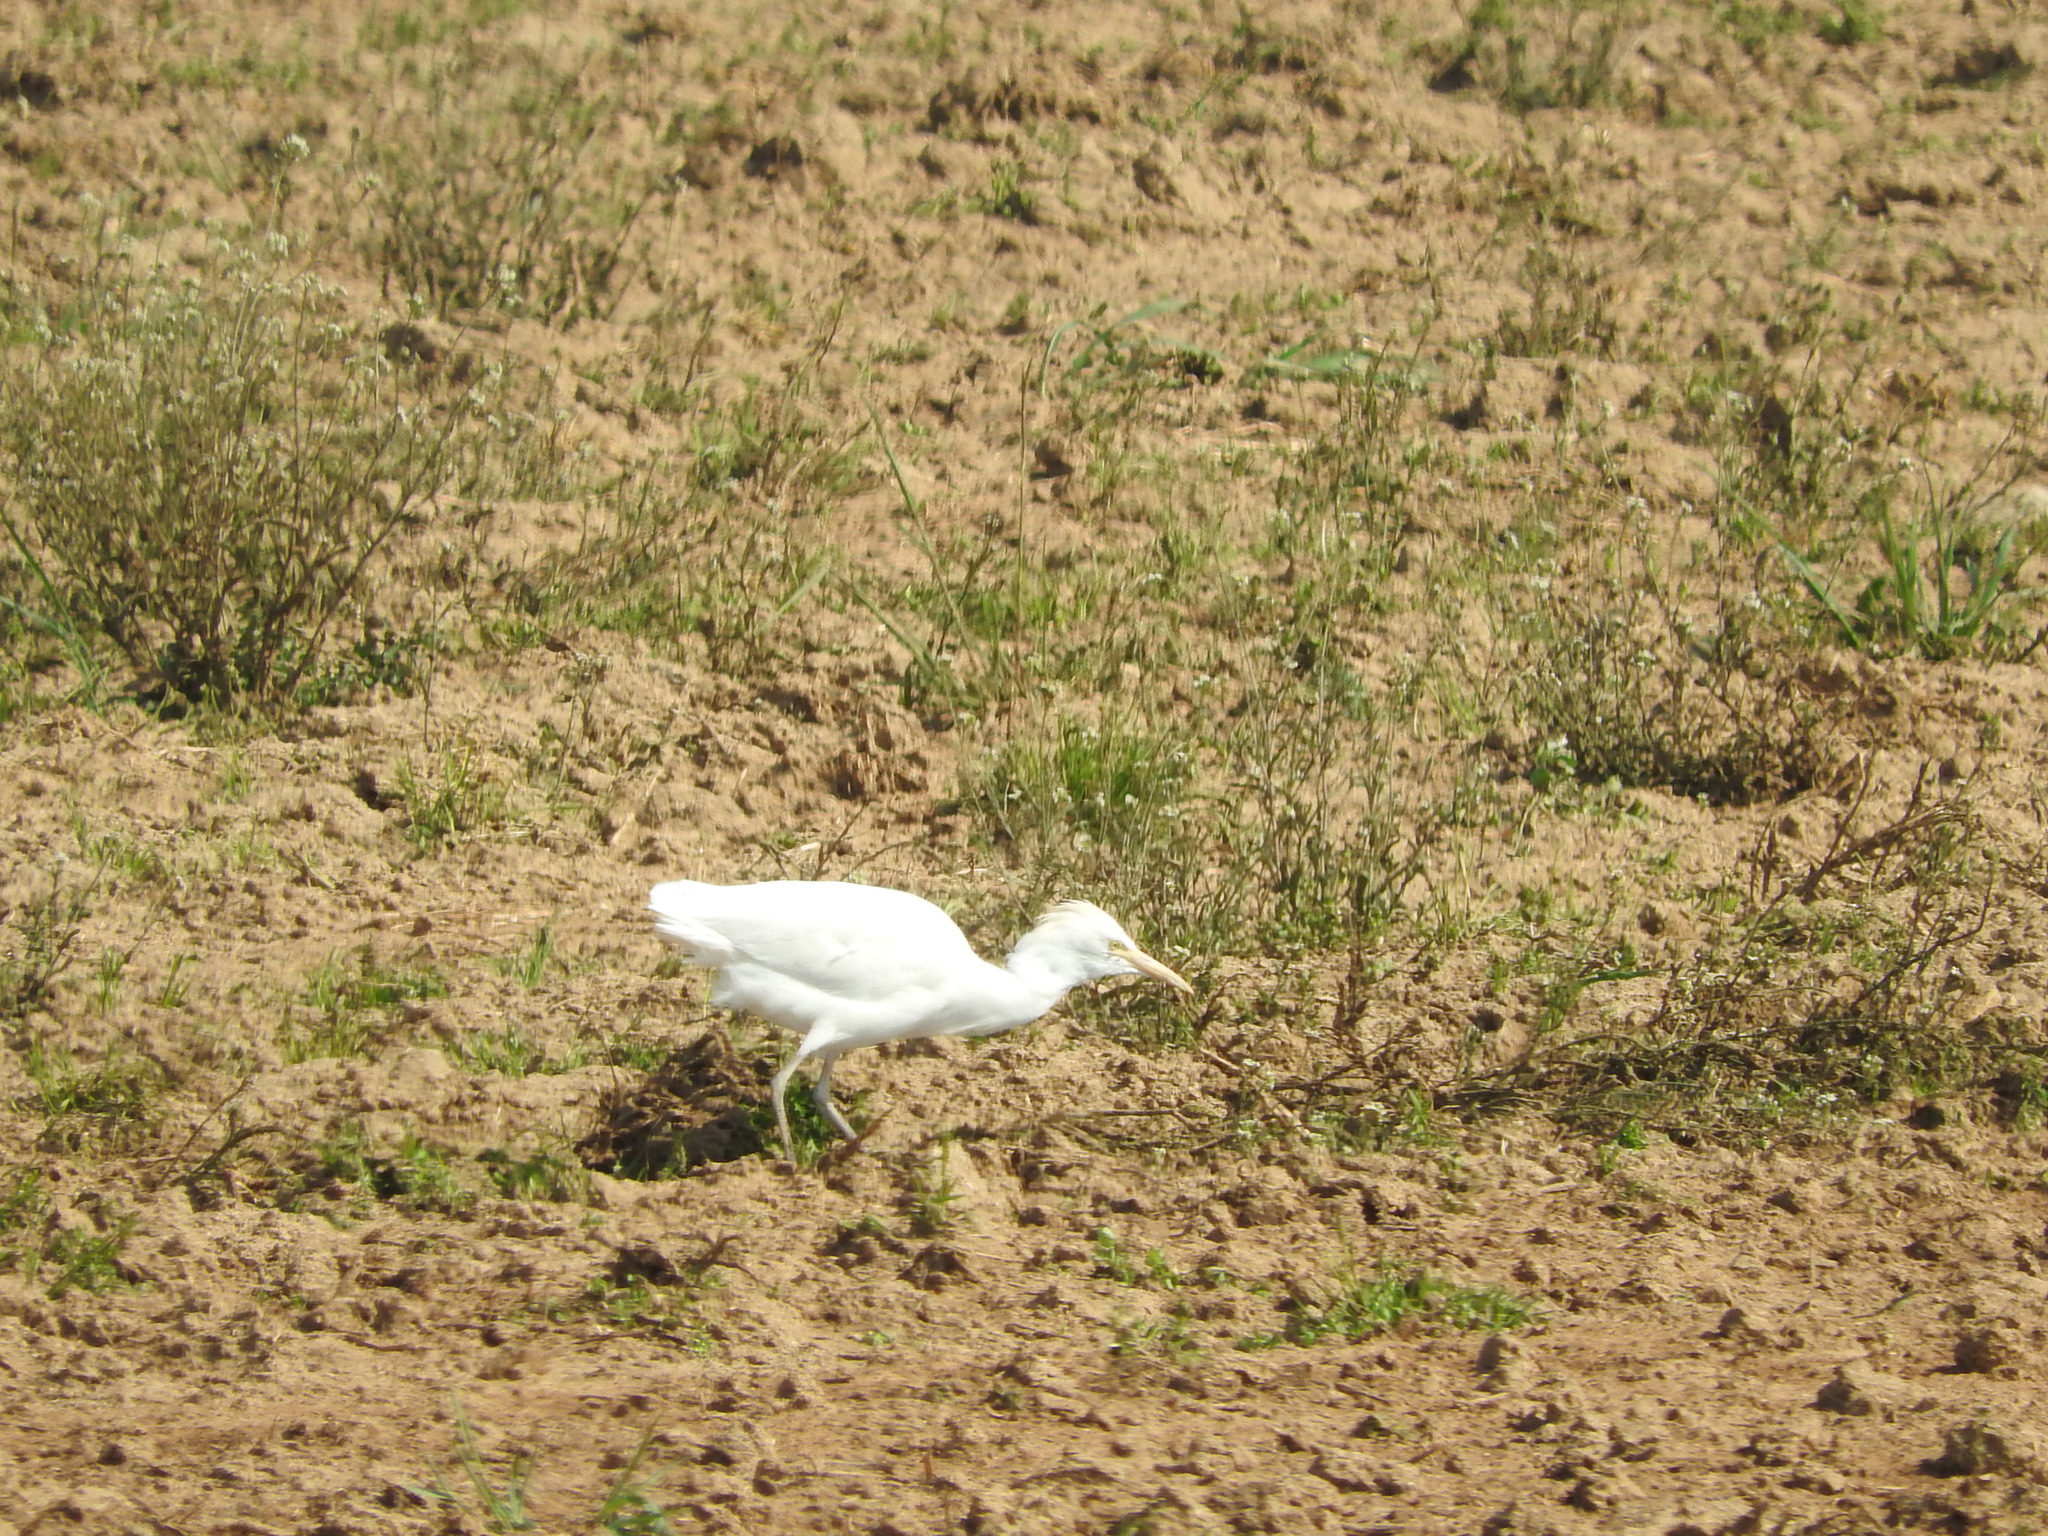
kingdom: Animalia
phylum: Chordata
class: Aves
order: Pelecaniformes
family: Ardeidae
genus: Bubulcus
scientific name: Bubulcus ibis
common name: Cattle egret
